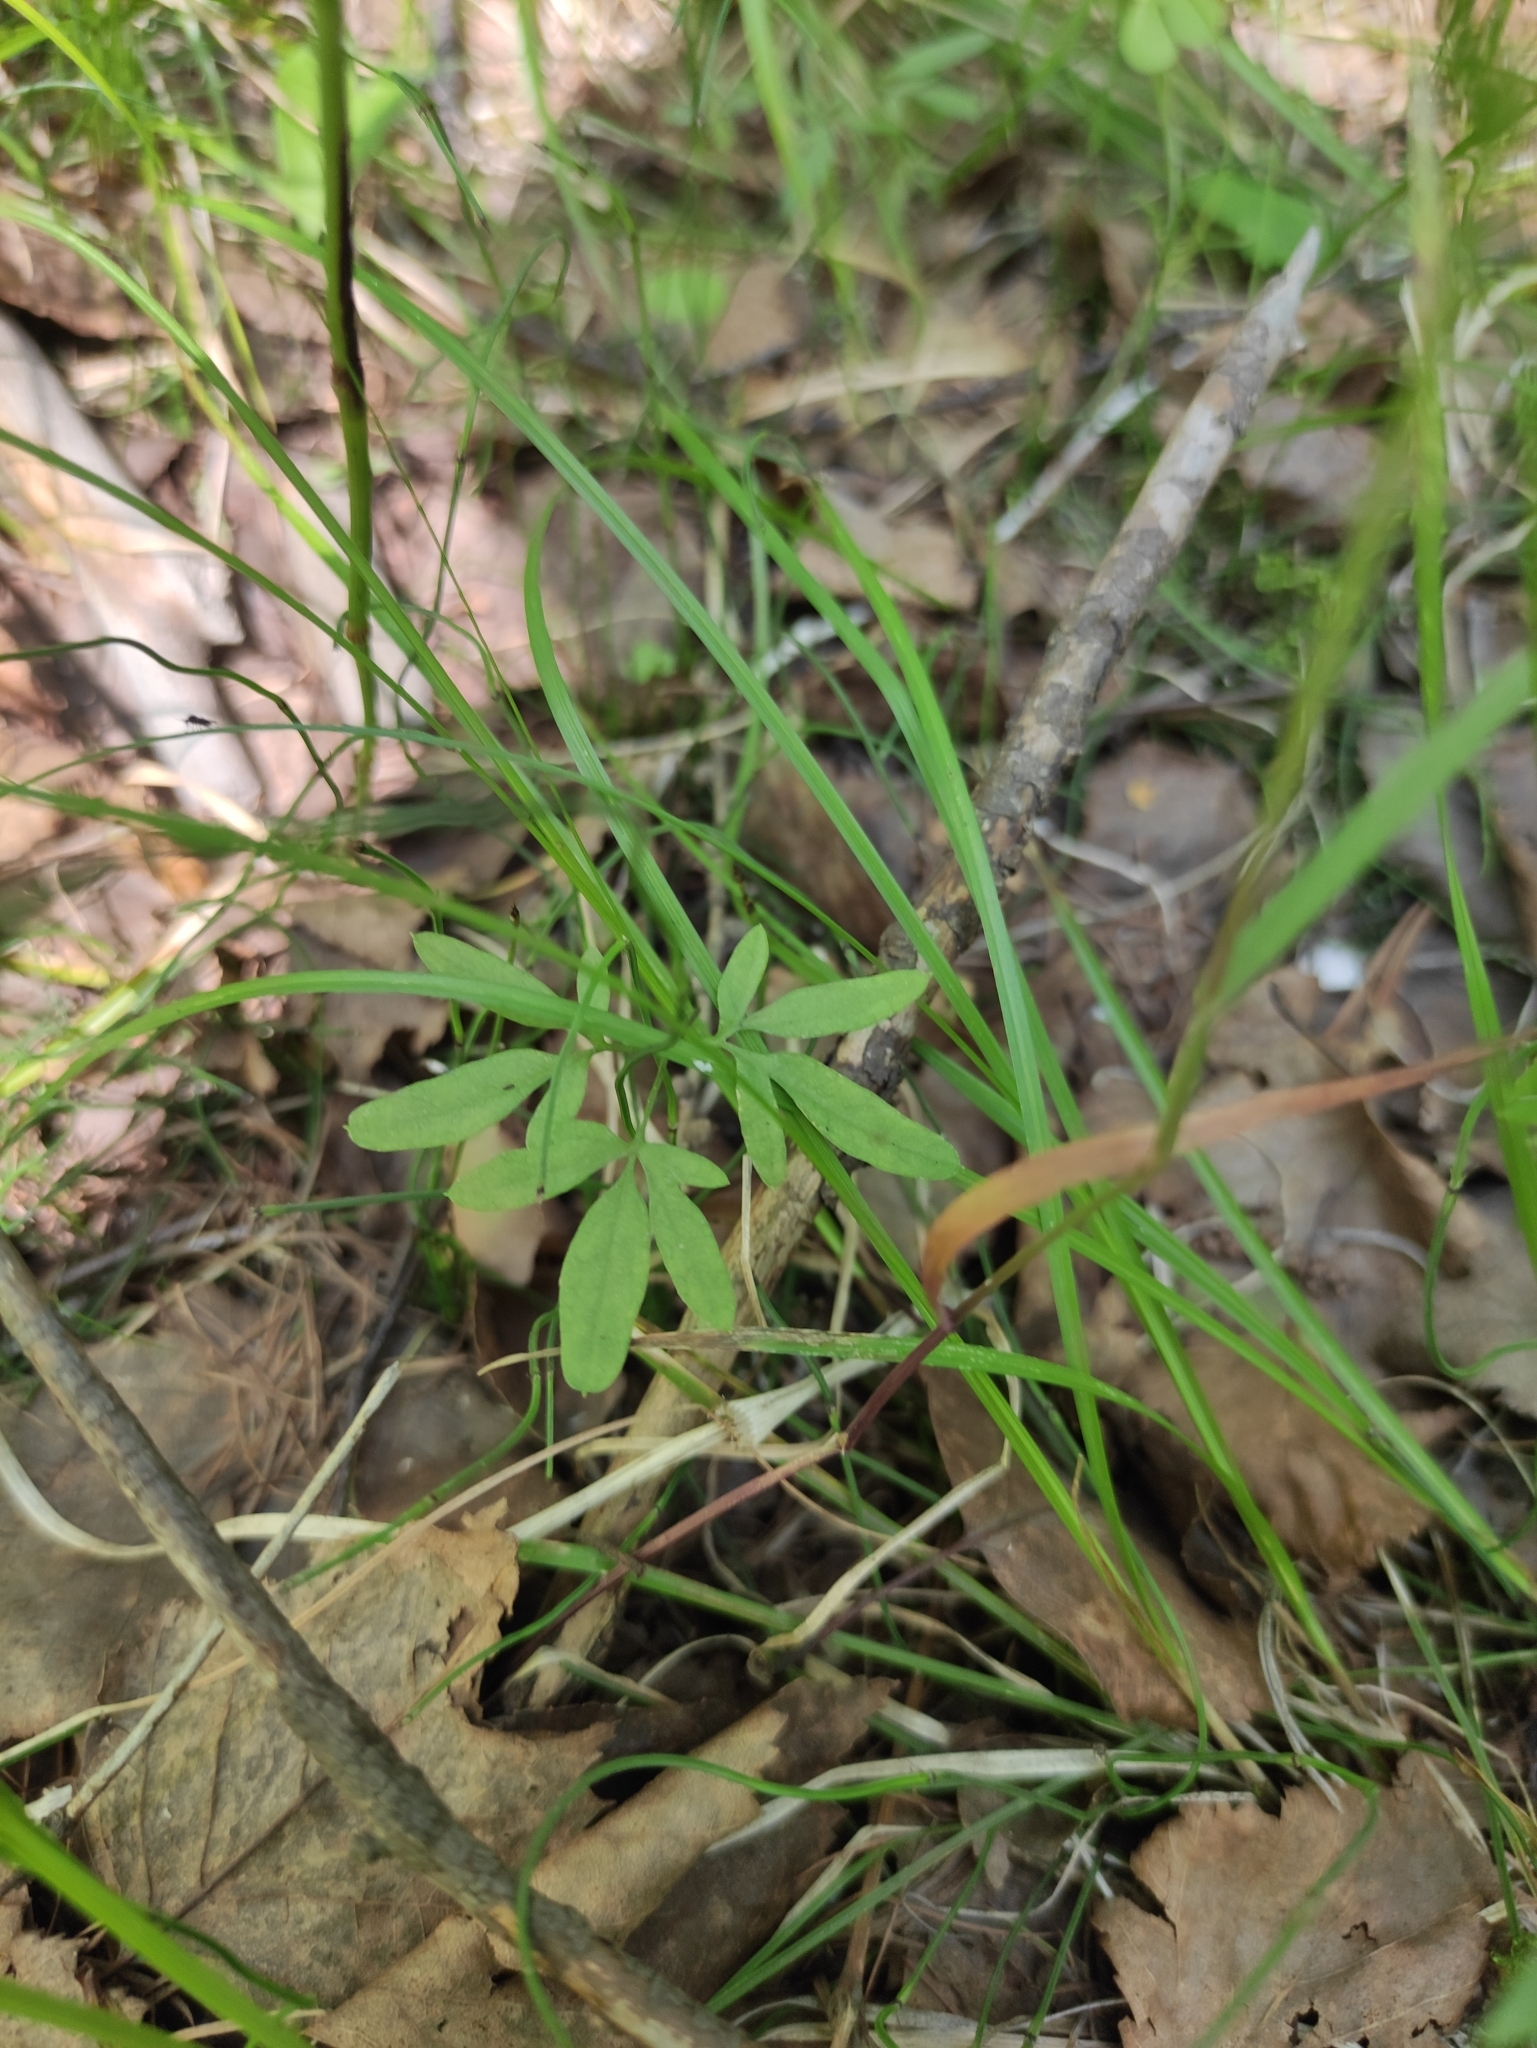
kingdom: Plantae
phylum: Tracheophyta
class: Magnoliopsida
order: Brassicales
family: Brassicaceae
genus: Cardamine
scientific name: Cardamine trifida
